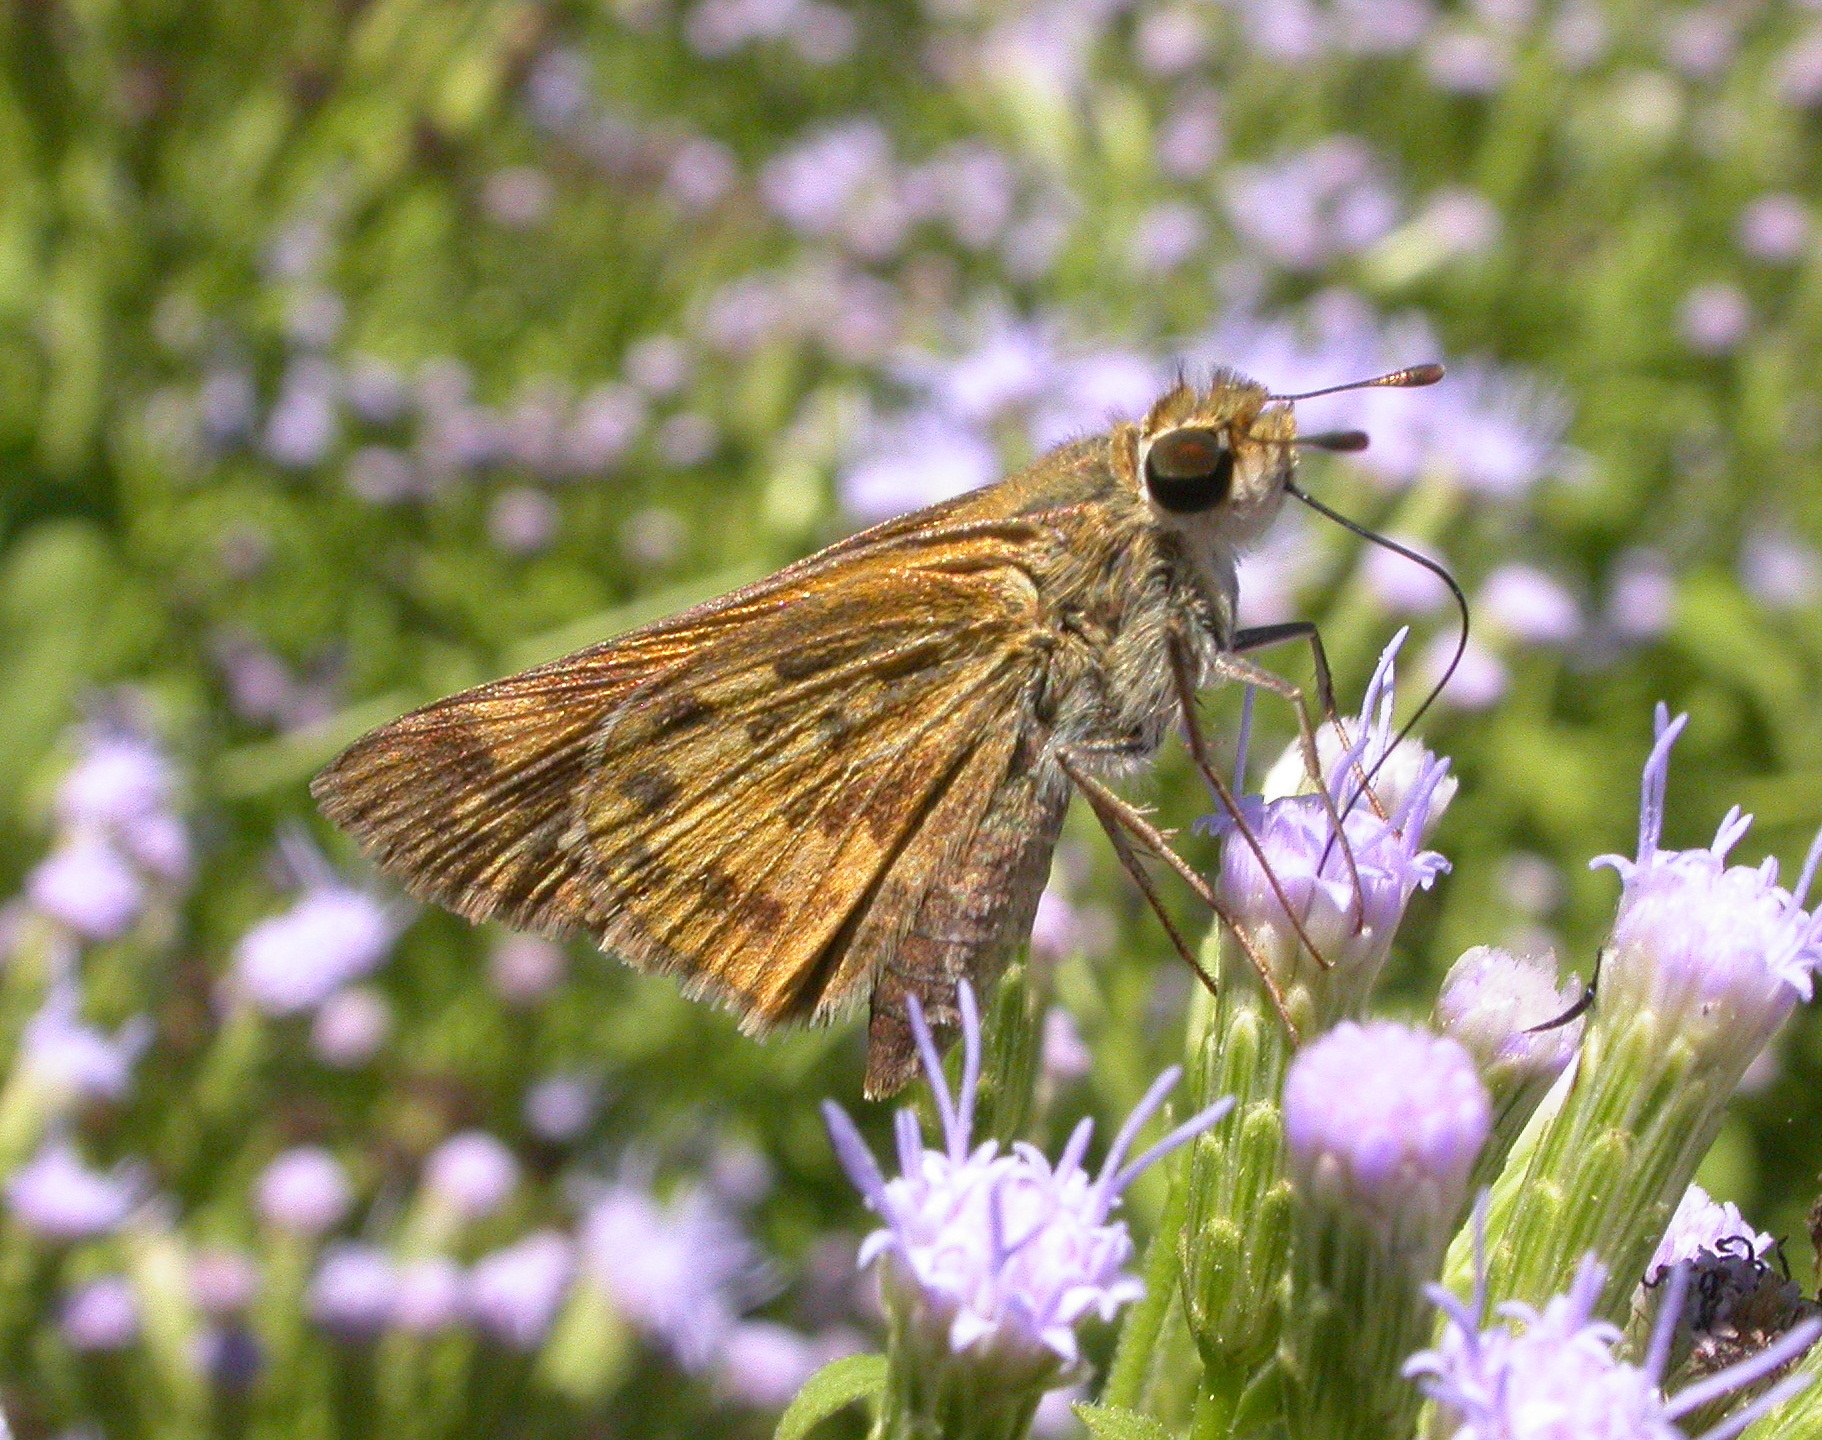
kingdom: Animalia
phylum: Arthropoda
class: Insecta
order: Lepidoptera
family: Hesperiidae
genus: Hylephila
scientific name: Hylephila phyleus
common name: Fiery skipper
